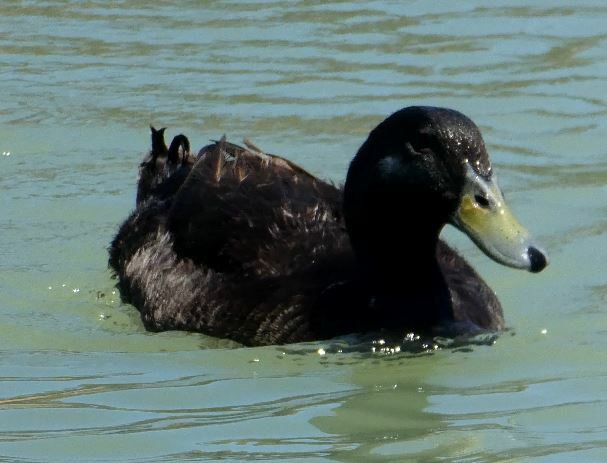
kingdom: Animalia
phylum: Chordata
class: Aves
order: Anseriformes
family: Anatidae
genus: Anas
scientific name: Anas platyrhynchos
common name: Mallard
